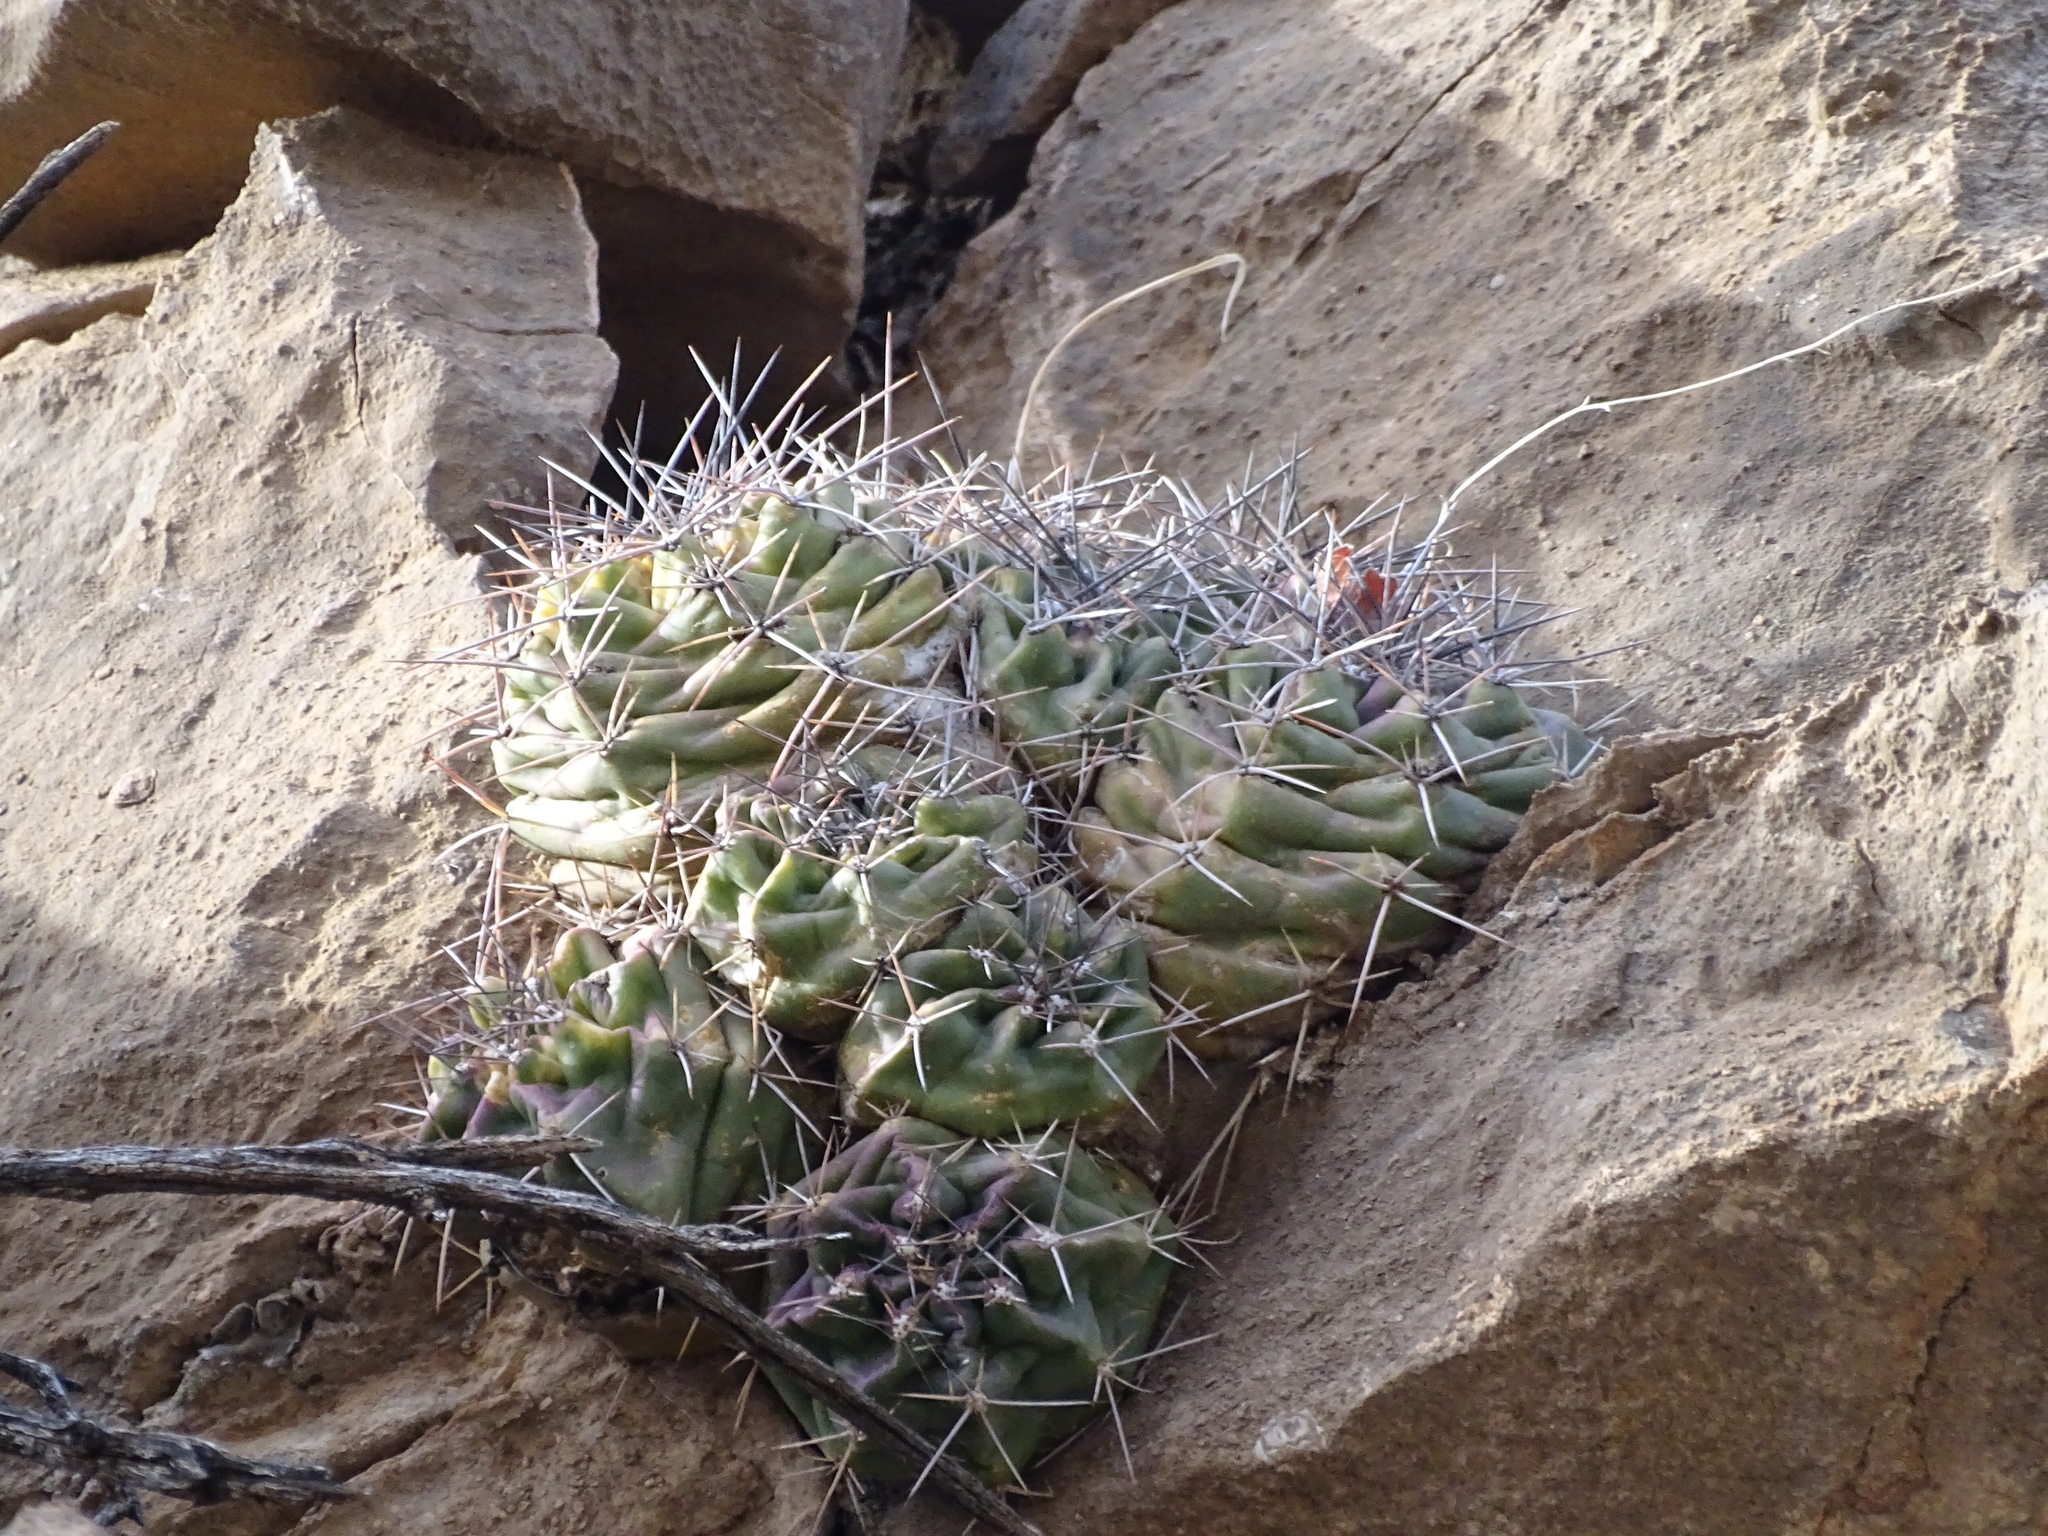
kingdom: Plantae
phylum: Tracheophyta
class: Magnoliopsida
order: Caryophyllales
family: Cactaceae
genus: Echinocereus
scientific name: Echinocereus coccineus
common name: Scarlet hedgehog cactus
